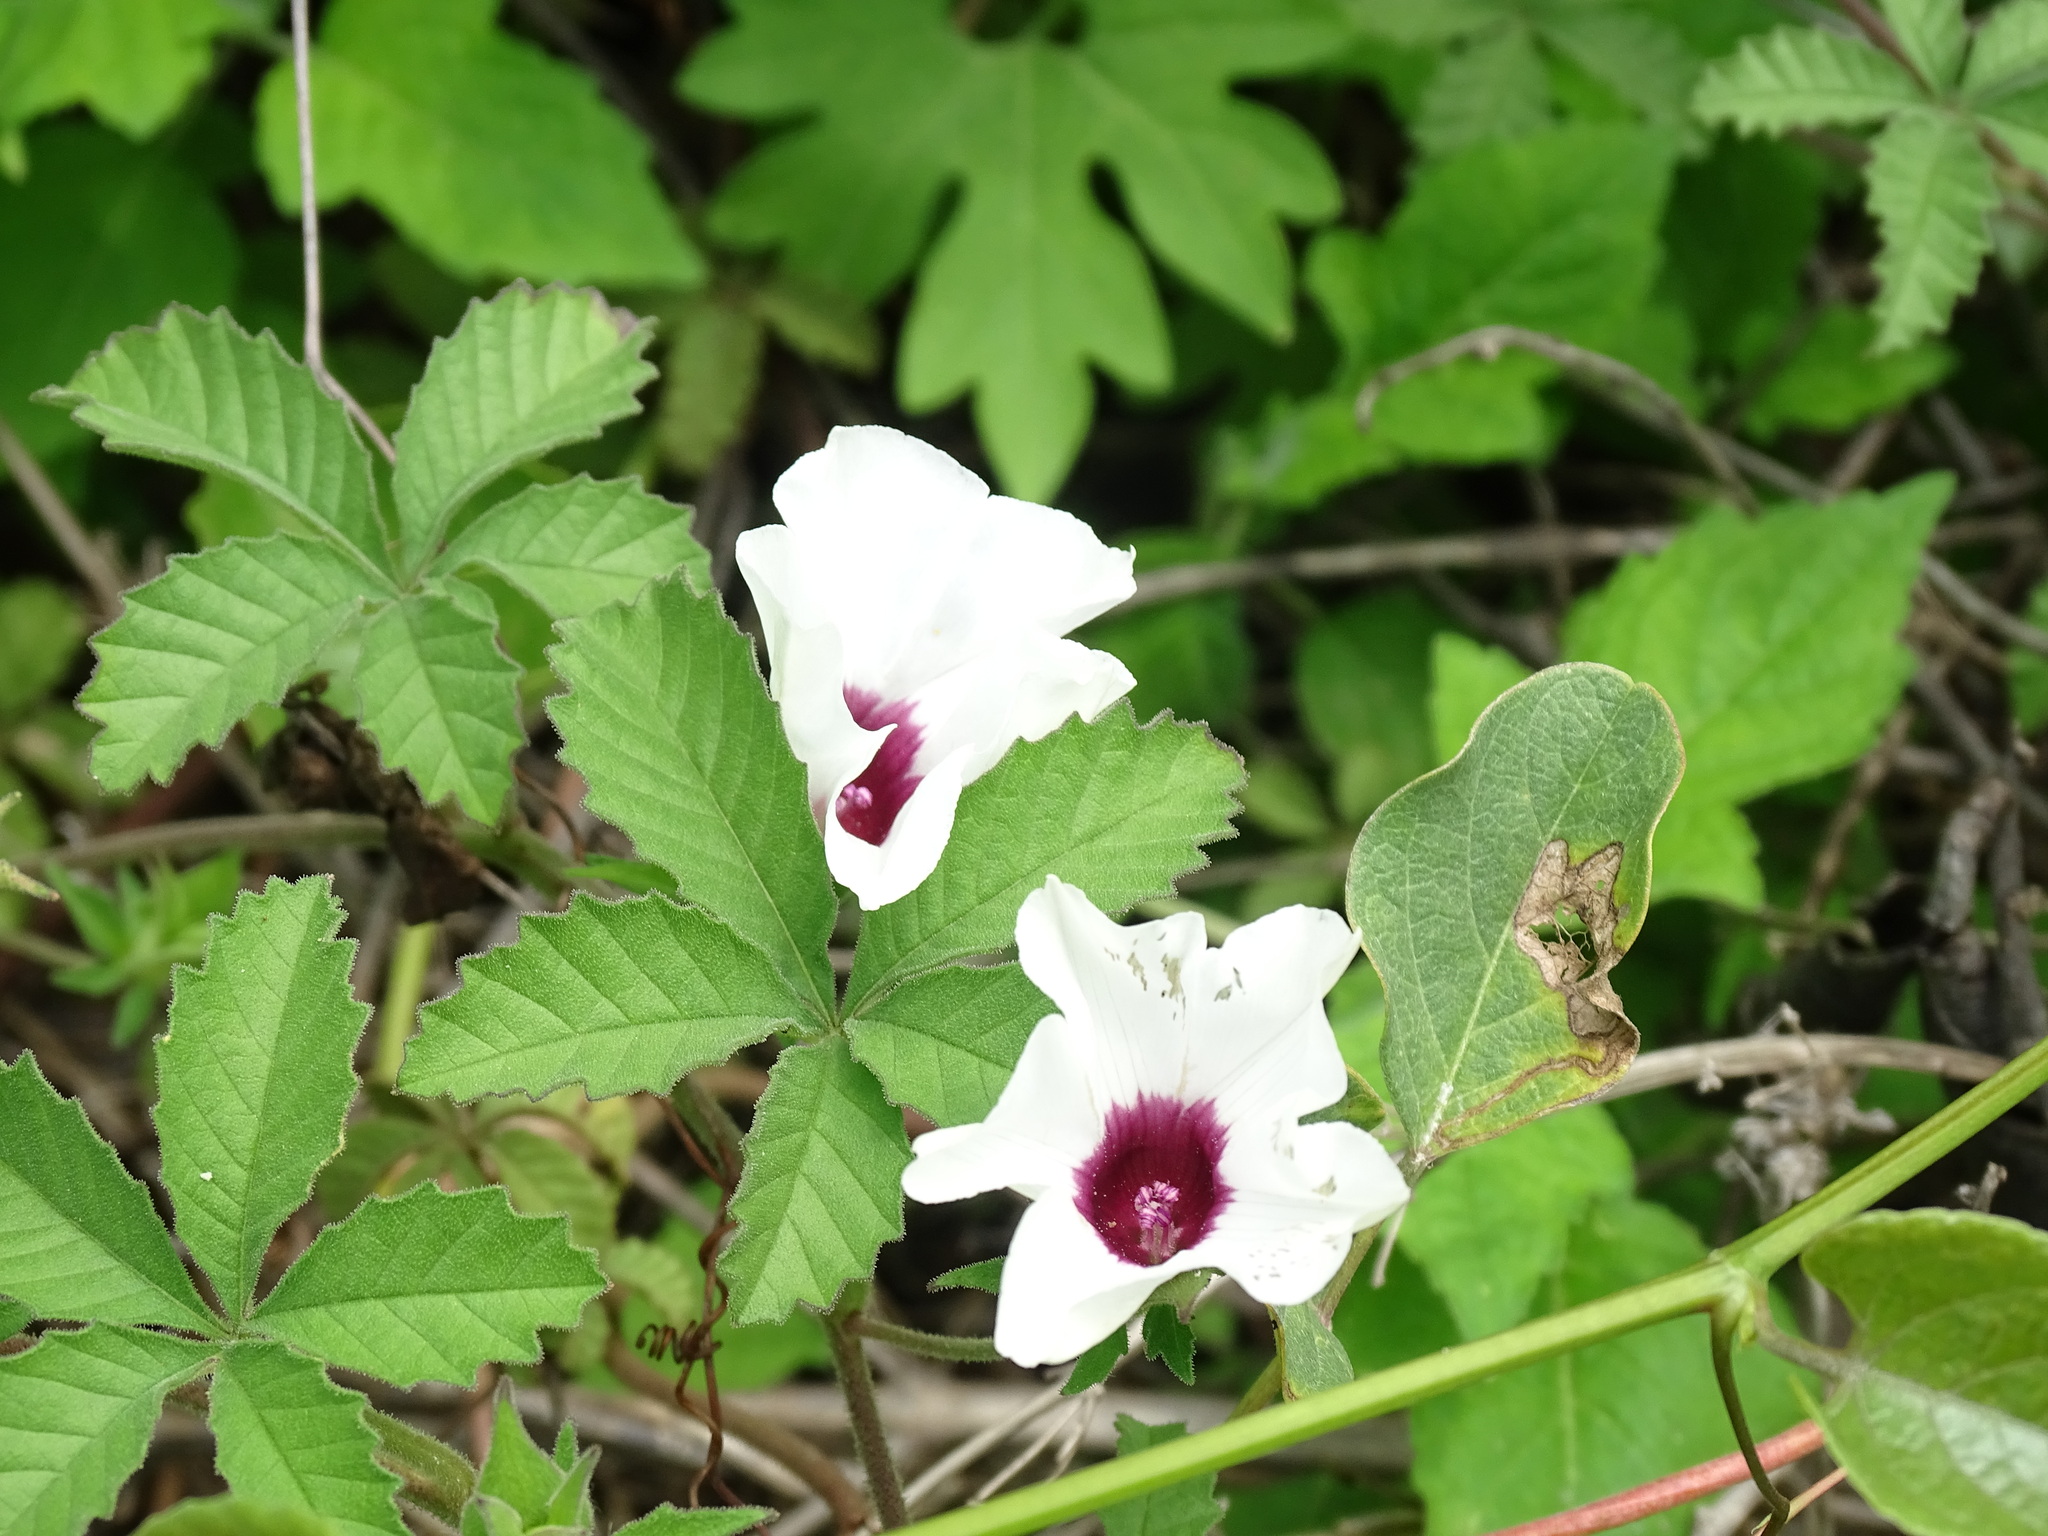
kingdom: Plantae
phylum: Tracheophyta
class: Magnoliopsida
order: Solanales
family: Convolvulaceae
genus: Distimake
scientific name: Distimake lobulibracteatus
